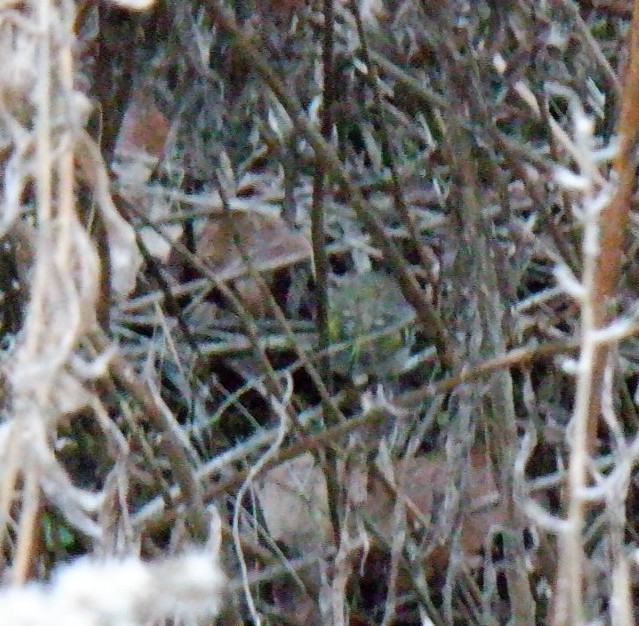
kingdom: Animalia
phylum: Chordata
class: Aves
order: Passeriformes
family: Regulidae
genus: Regulus
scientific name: Regulus satrapa
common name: Golden-crowned kinglet
